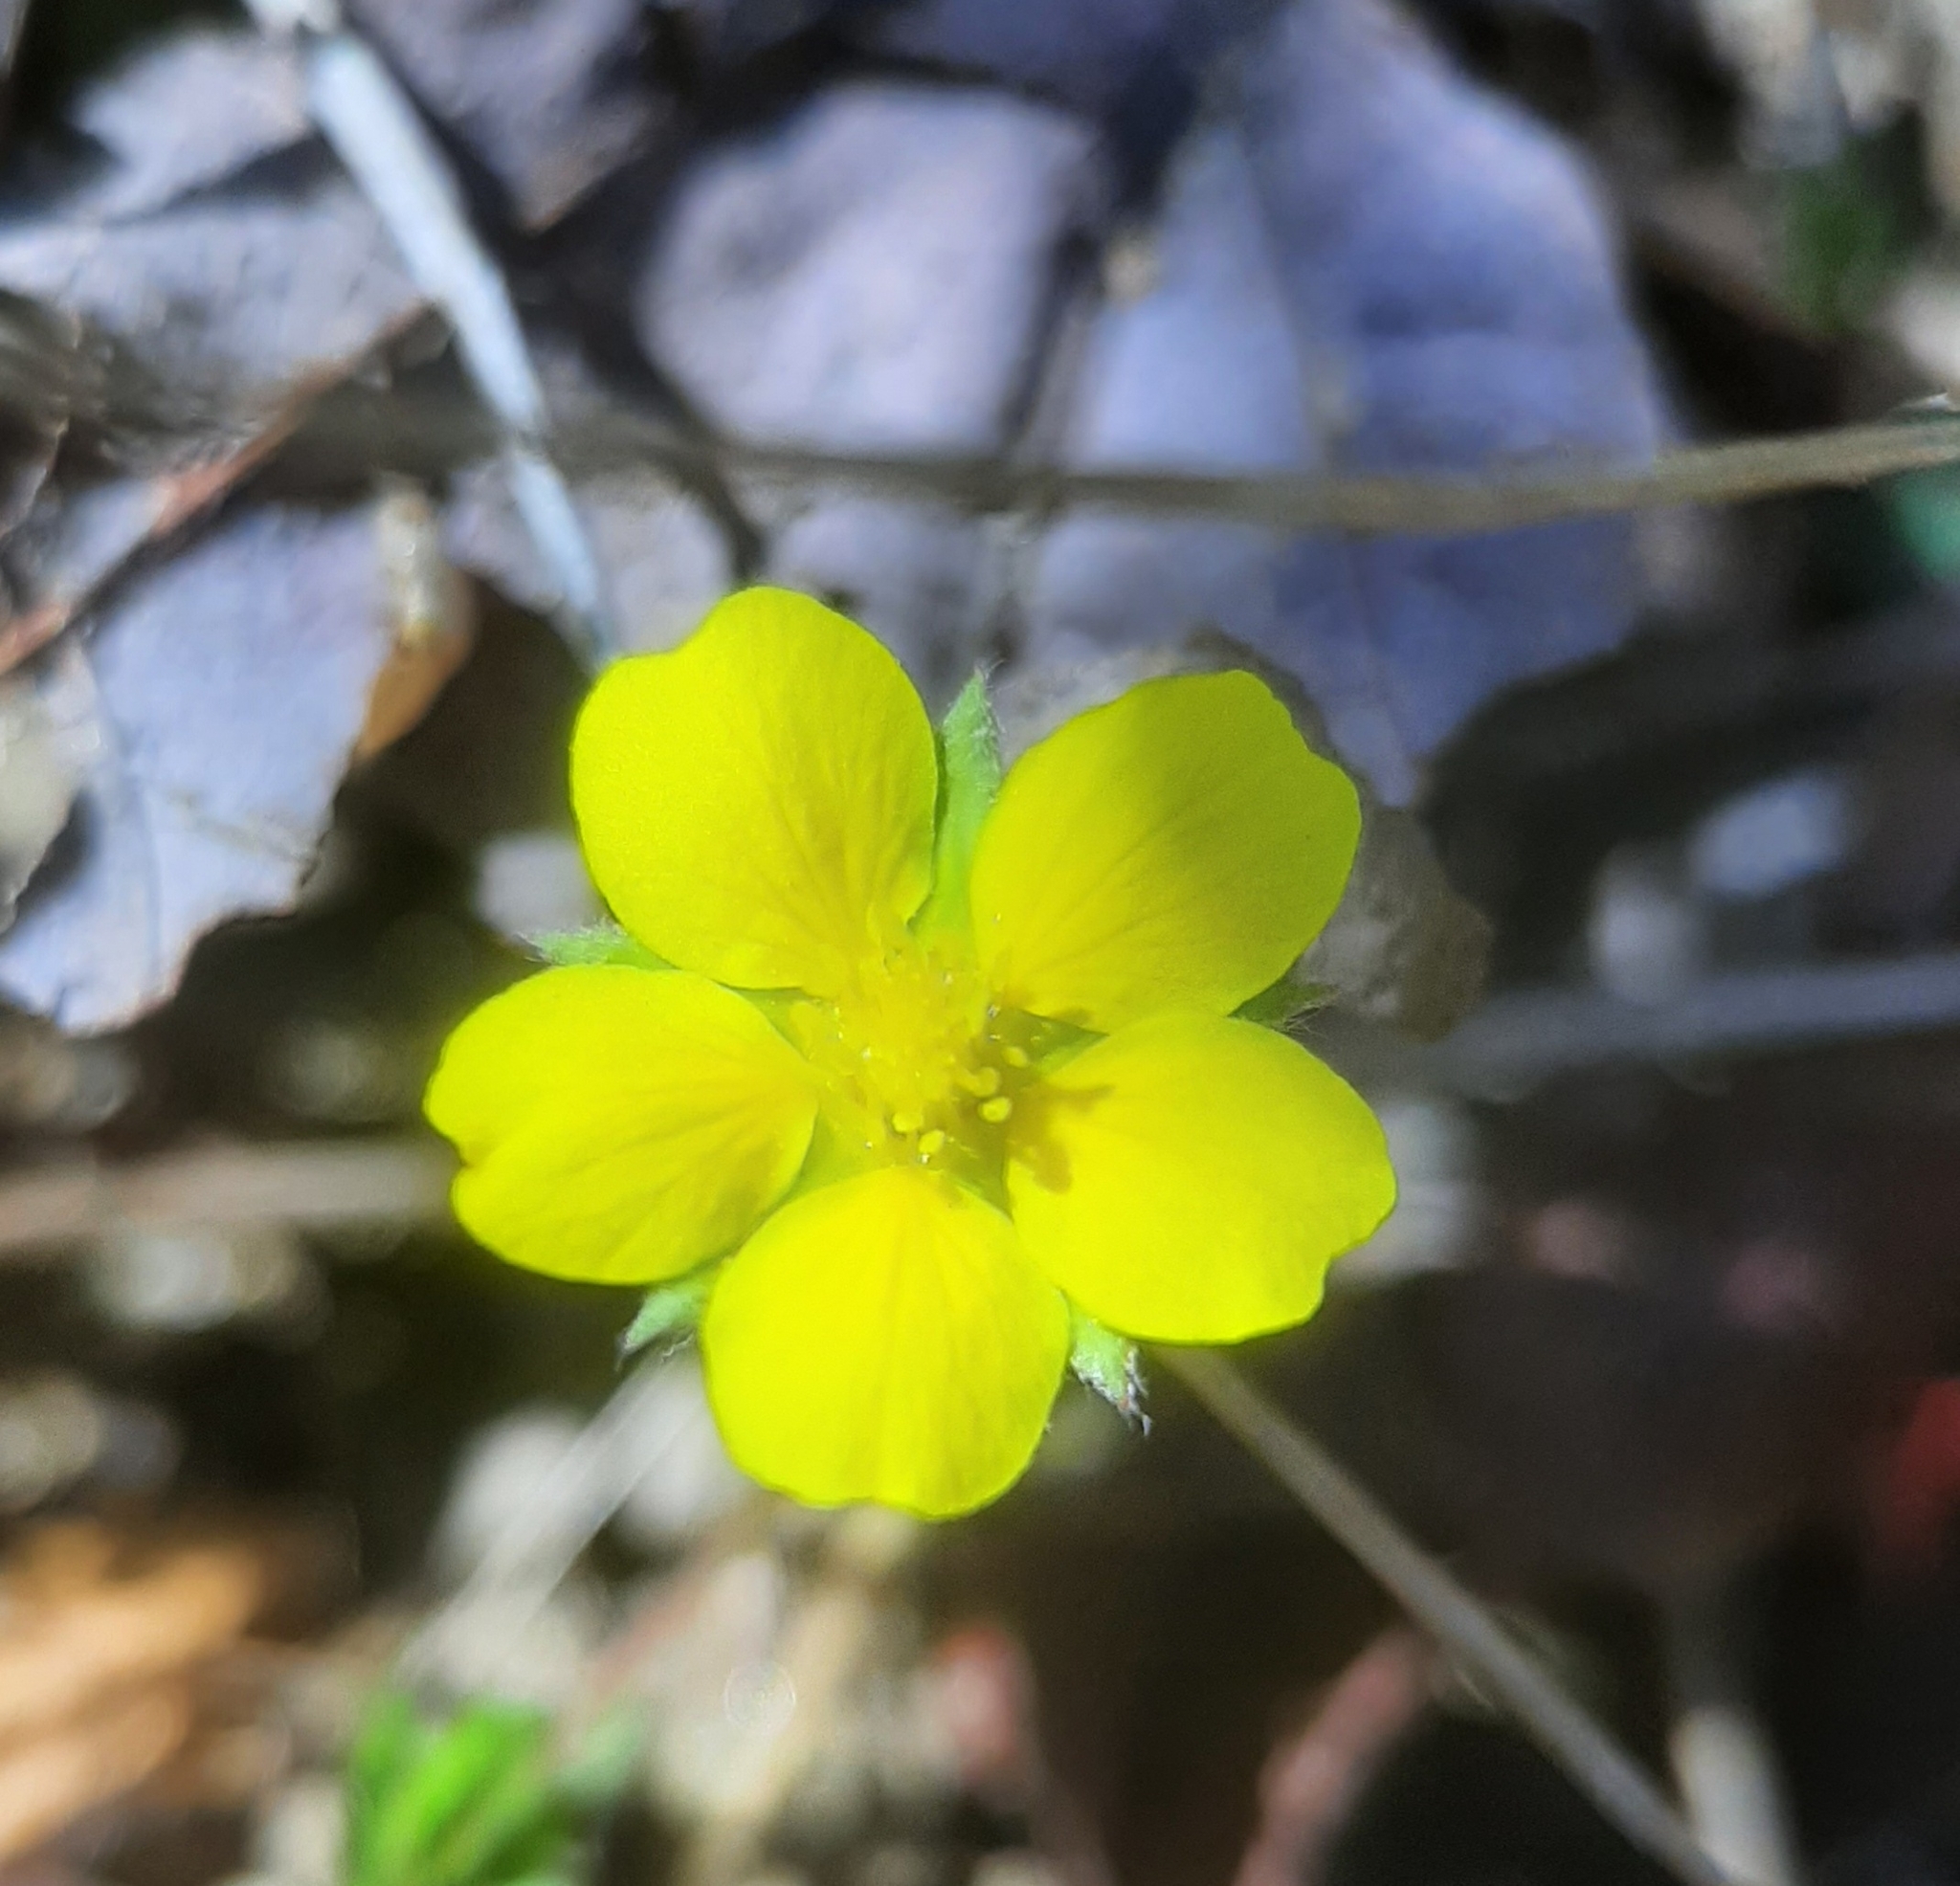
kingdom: Plantae
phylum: Tracheophyta
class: Magnoliopsida
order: Rosales
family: Rosaceae
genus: Potentilla
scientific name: Potentilla canadensis
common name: Canada cinquefoil
